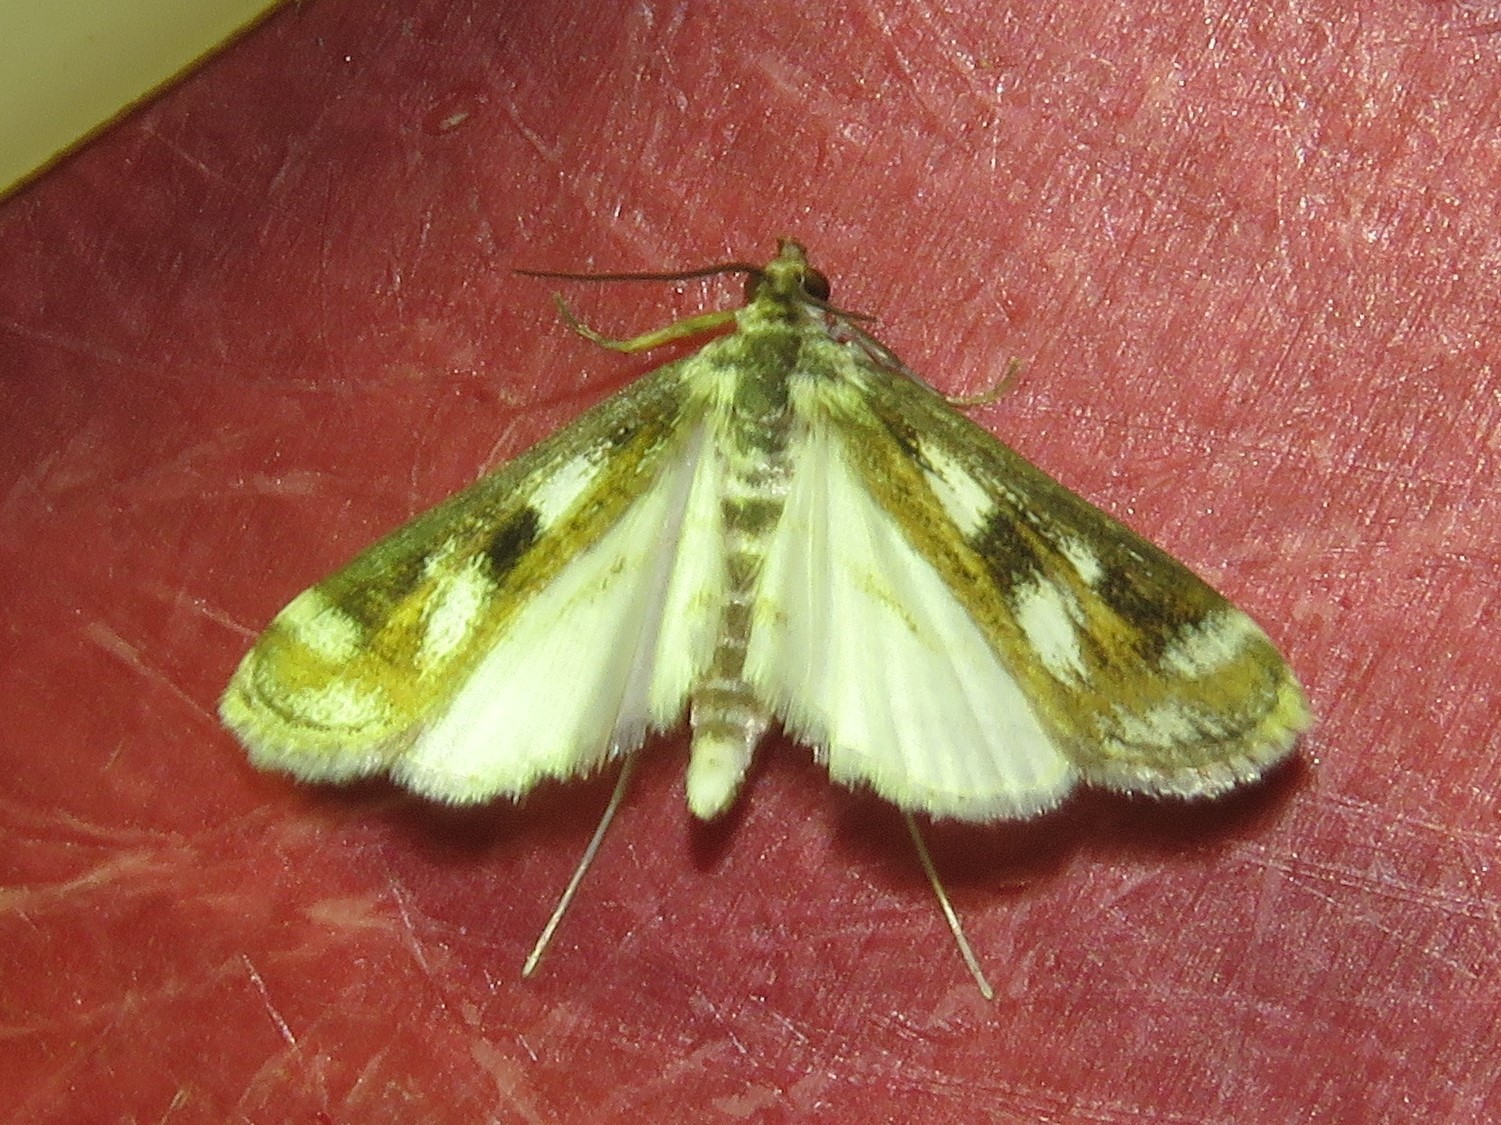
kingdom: Animalia
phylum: Arthropoda
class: Insecta
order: Lepidoptera
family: Crambidae
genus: Parapoynx
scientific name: Parapoynx maculalis
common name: Polymorphic pondweed moth
